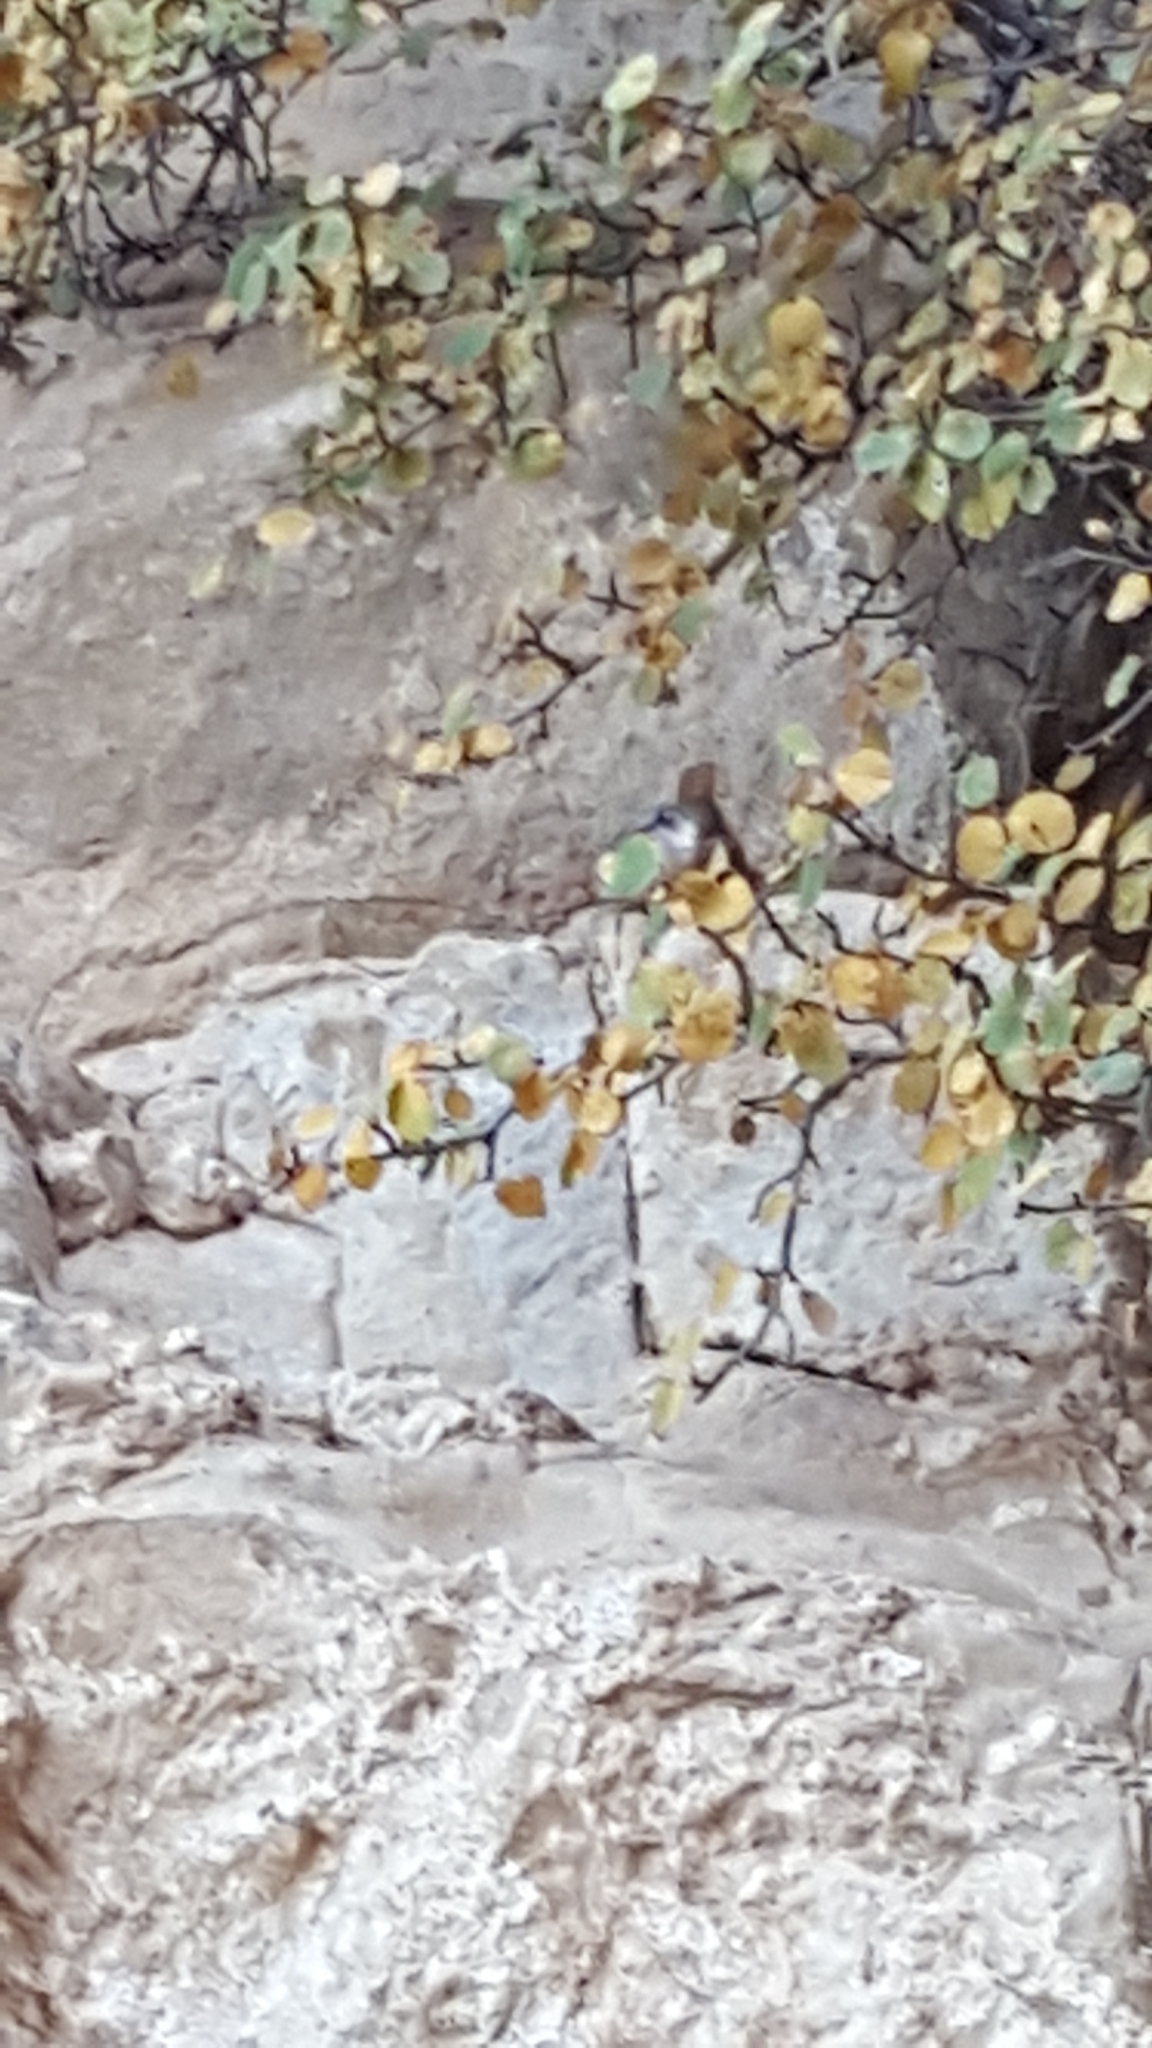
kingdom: Animalia
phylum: Chordata
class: Aves
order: Passeriformes
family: Troglodytidae
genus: Catherpes
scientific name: Catherpes mexicanus
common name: Canyon wren
